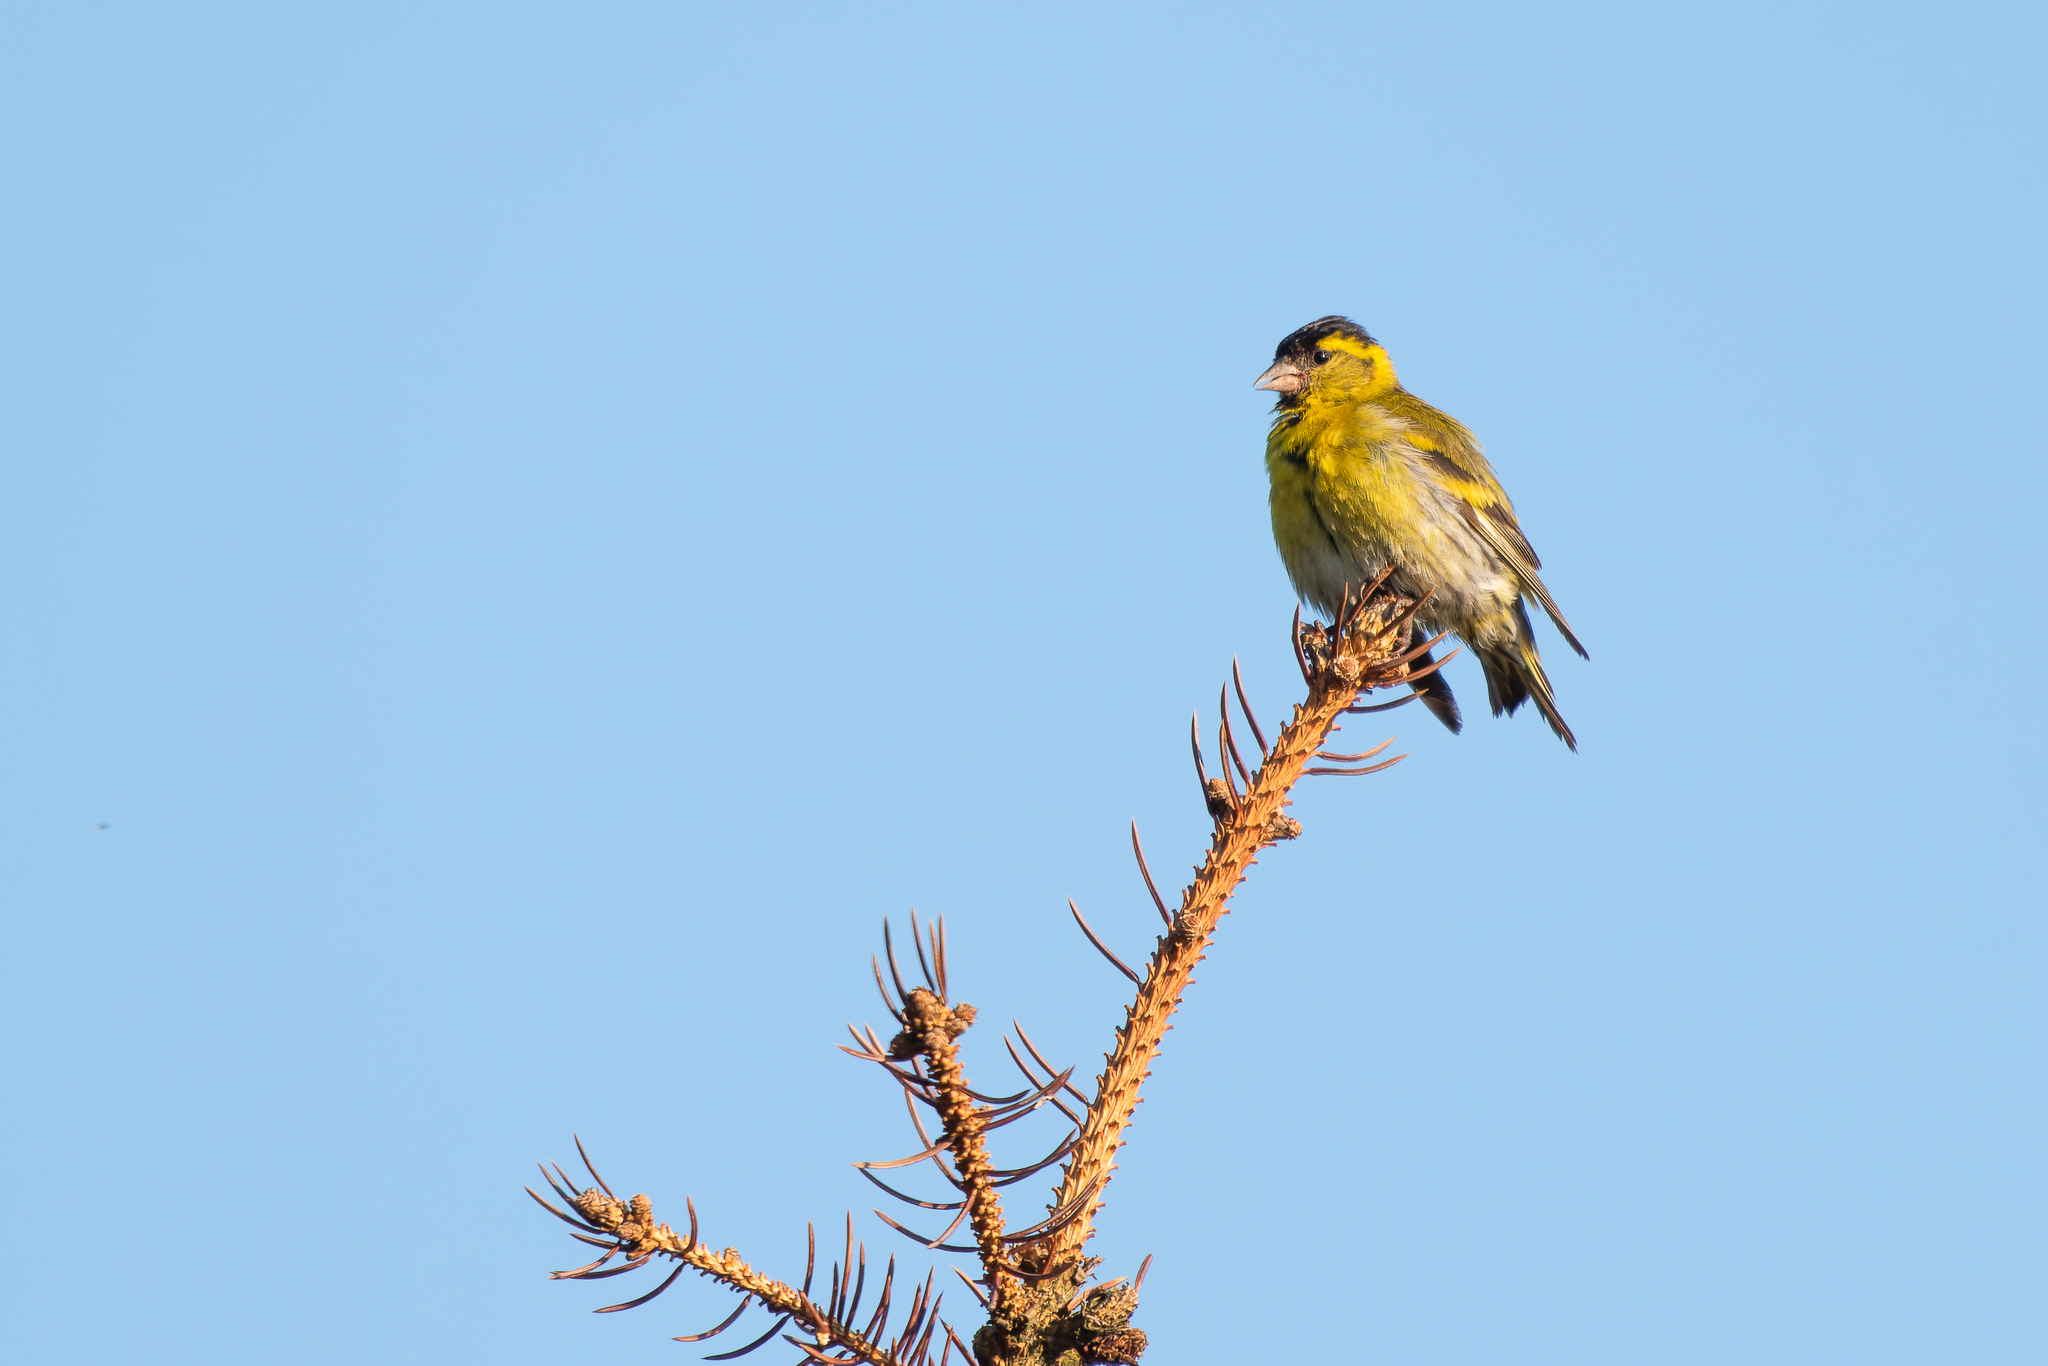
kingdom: Animalia
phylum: Chordata
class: Aves
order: Passeriformes
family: Fringillidae
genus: Spinus
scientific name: Spinus spinus
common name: Eurasian siskin
